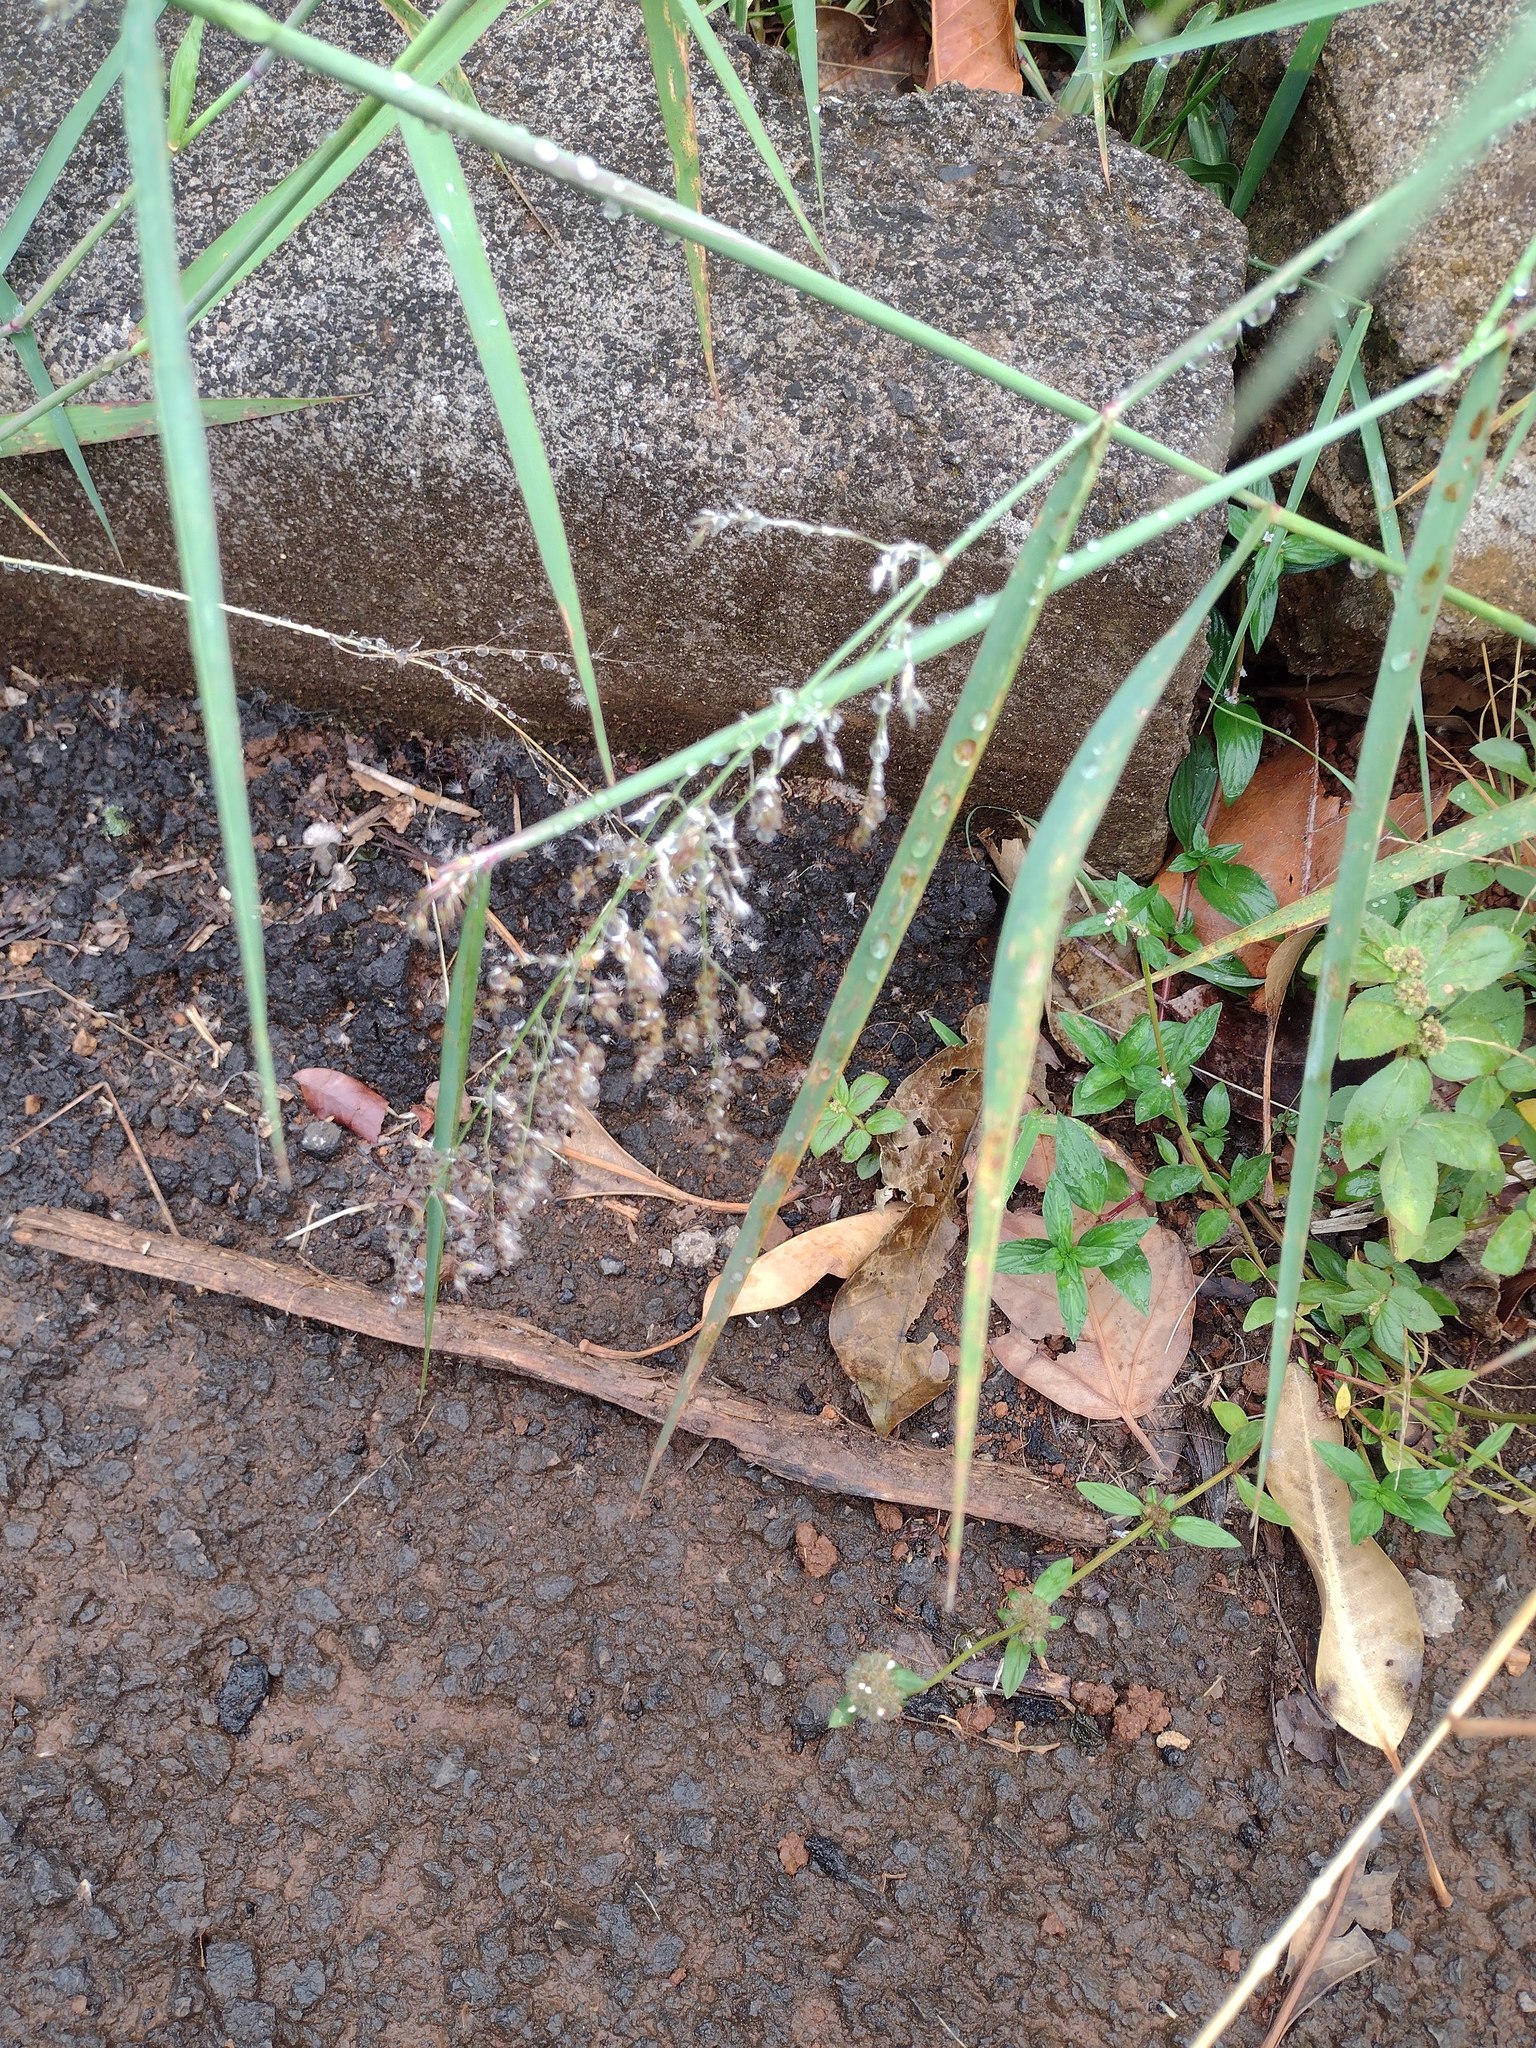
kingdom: Plantae
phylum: Tracheophyta
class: Liliopsida
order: Poales
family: Poaceae
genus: Melinis
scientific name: Melinis repens
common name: Rose natal grass
